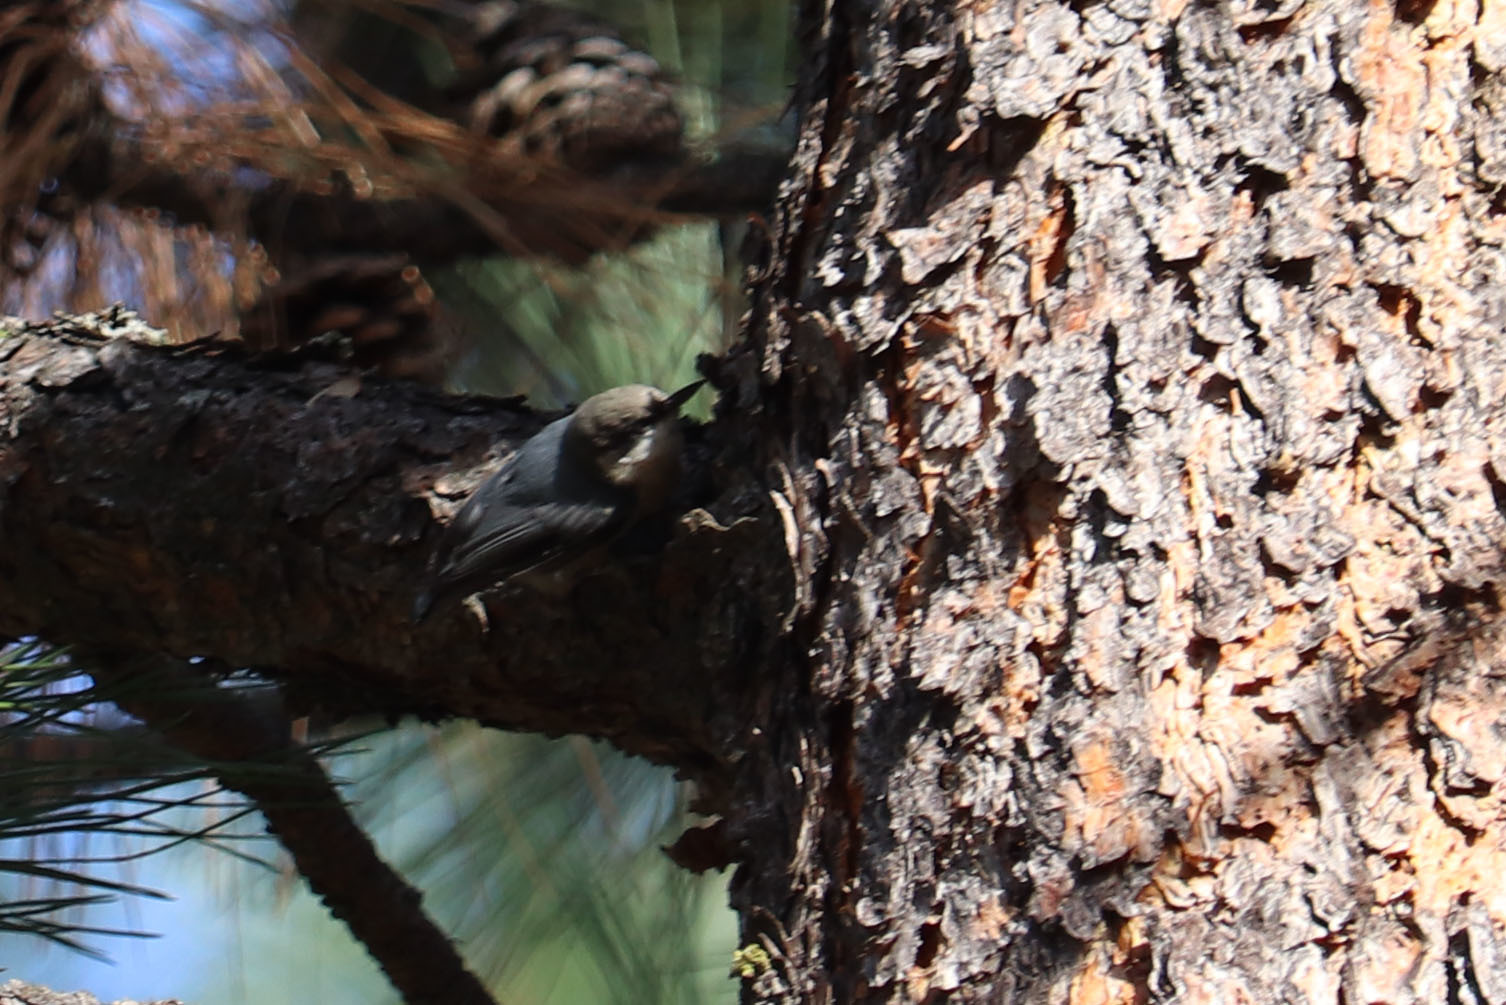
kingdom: Animalia
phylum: Chordata
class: Aves
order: Passeriformes
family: Sittidae
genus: Sitta
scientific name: Sitta pygmaea
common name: Pygmy nuthatch
